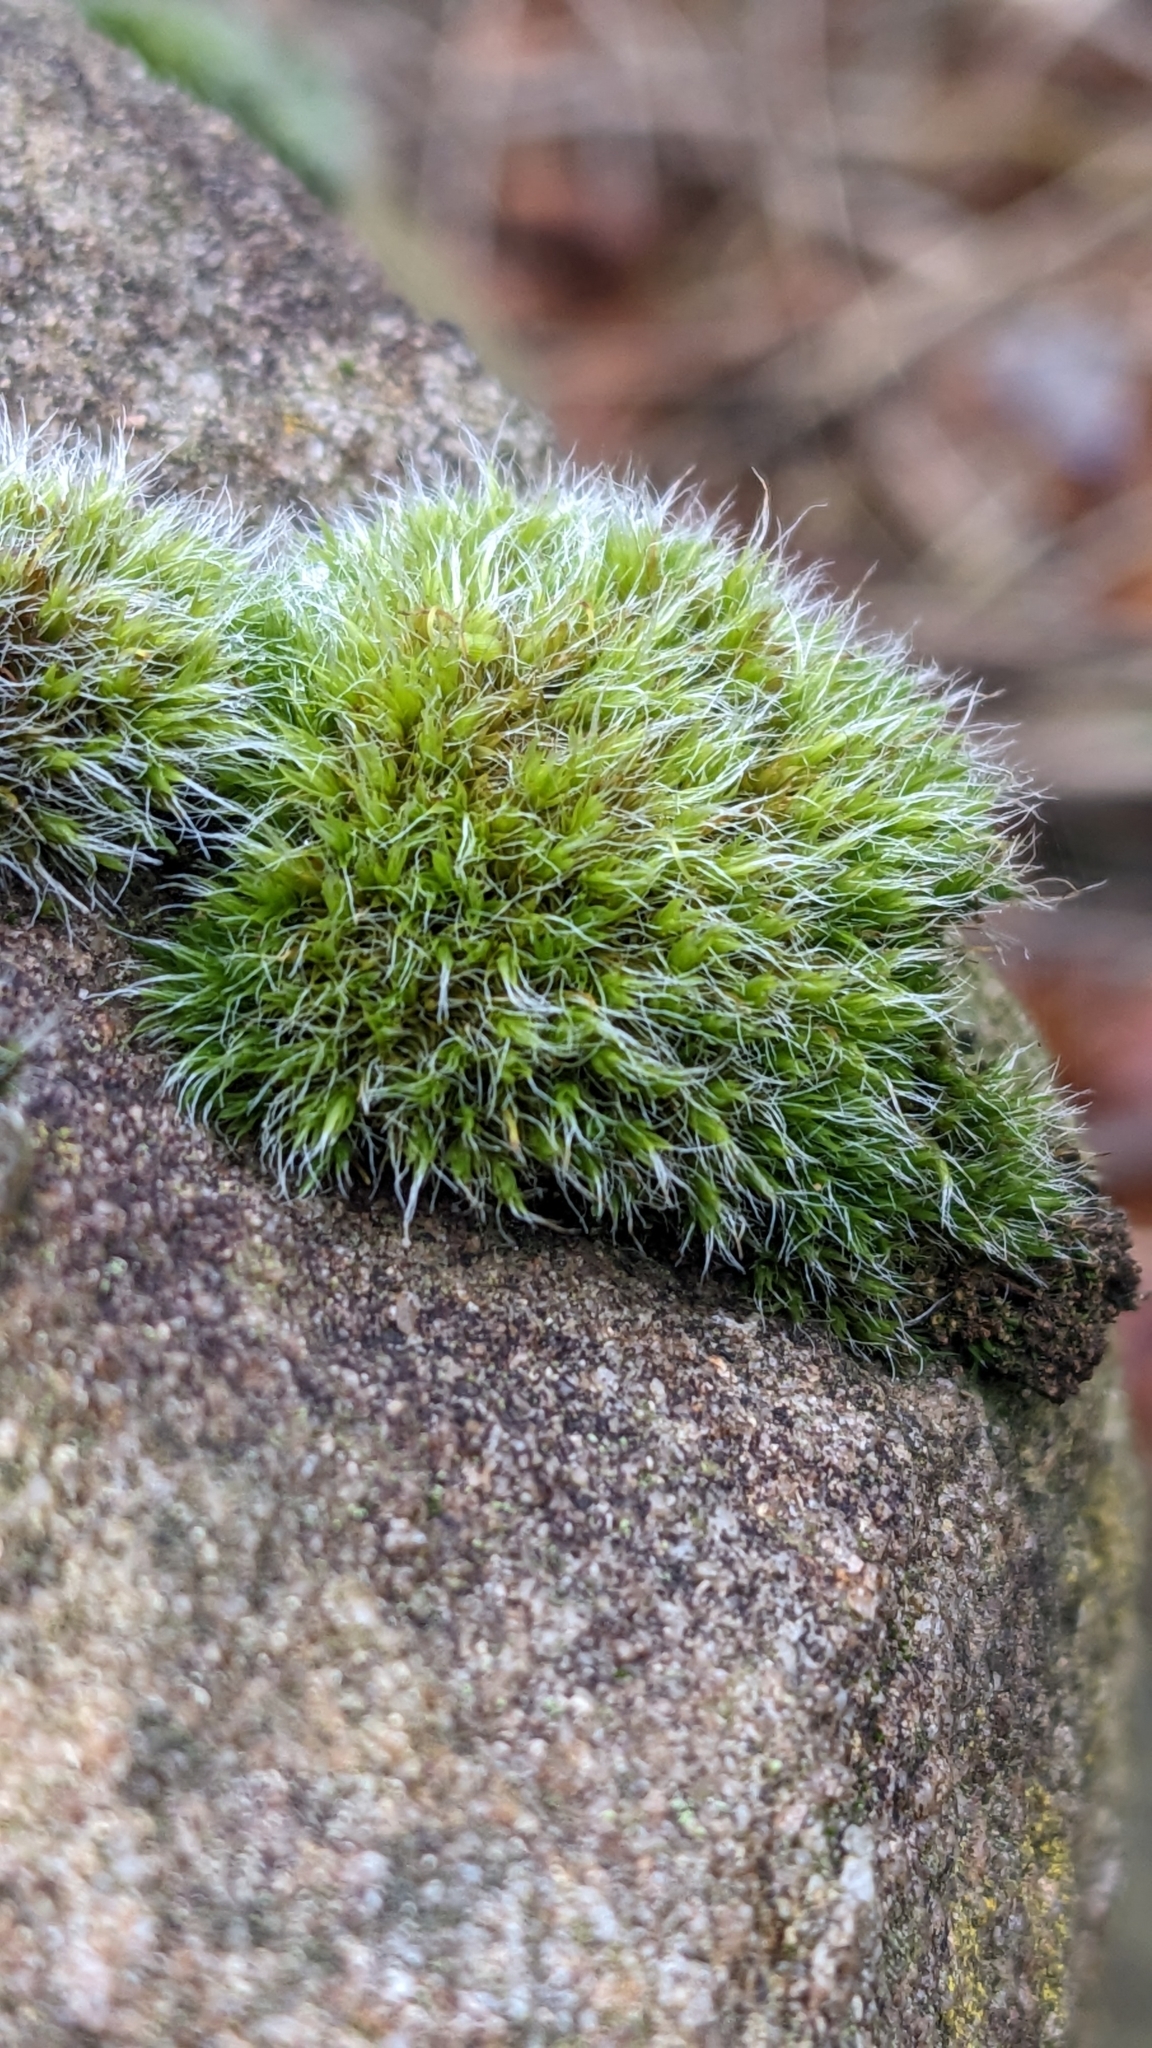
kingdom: Plantae
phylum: Bryophyta
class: Bryopsida
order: Grimmiales
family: Grimmiaceae
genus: Grimmia
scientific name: Grimmia pulvinata
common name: Grey-cushioned grimmia
